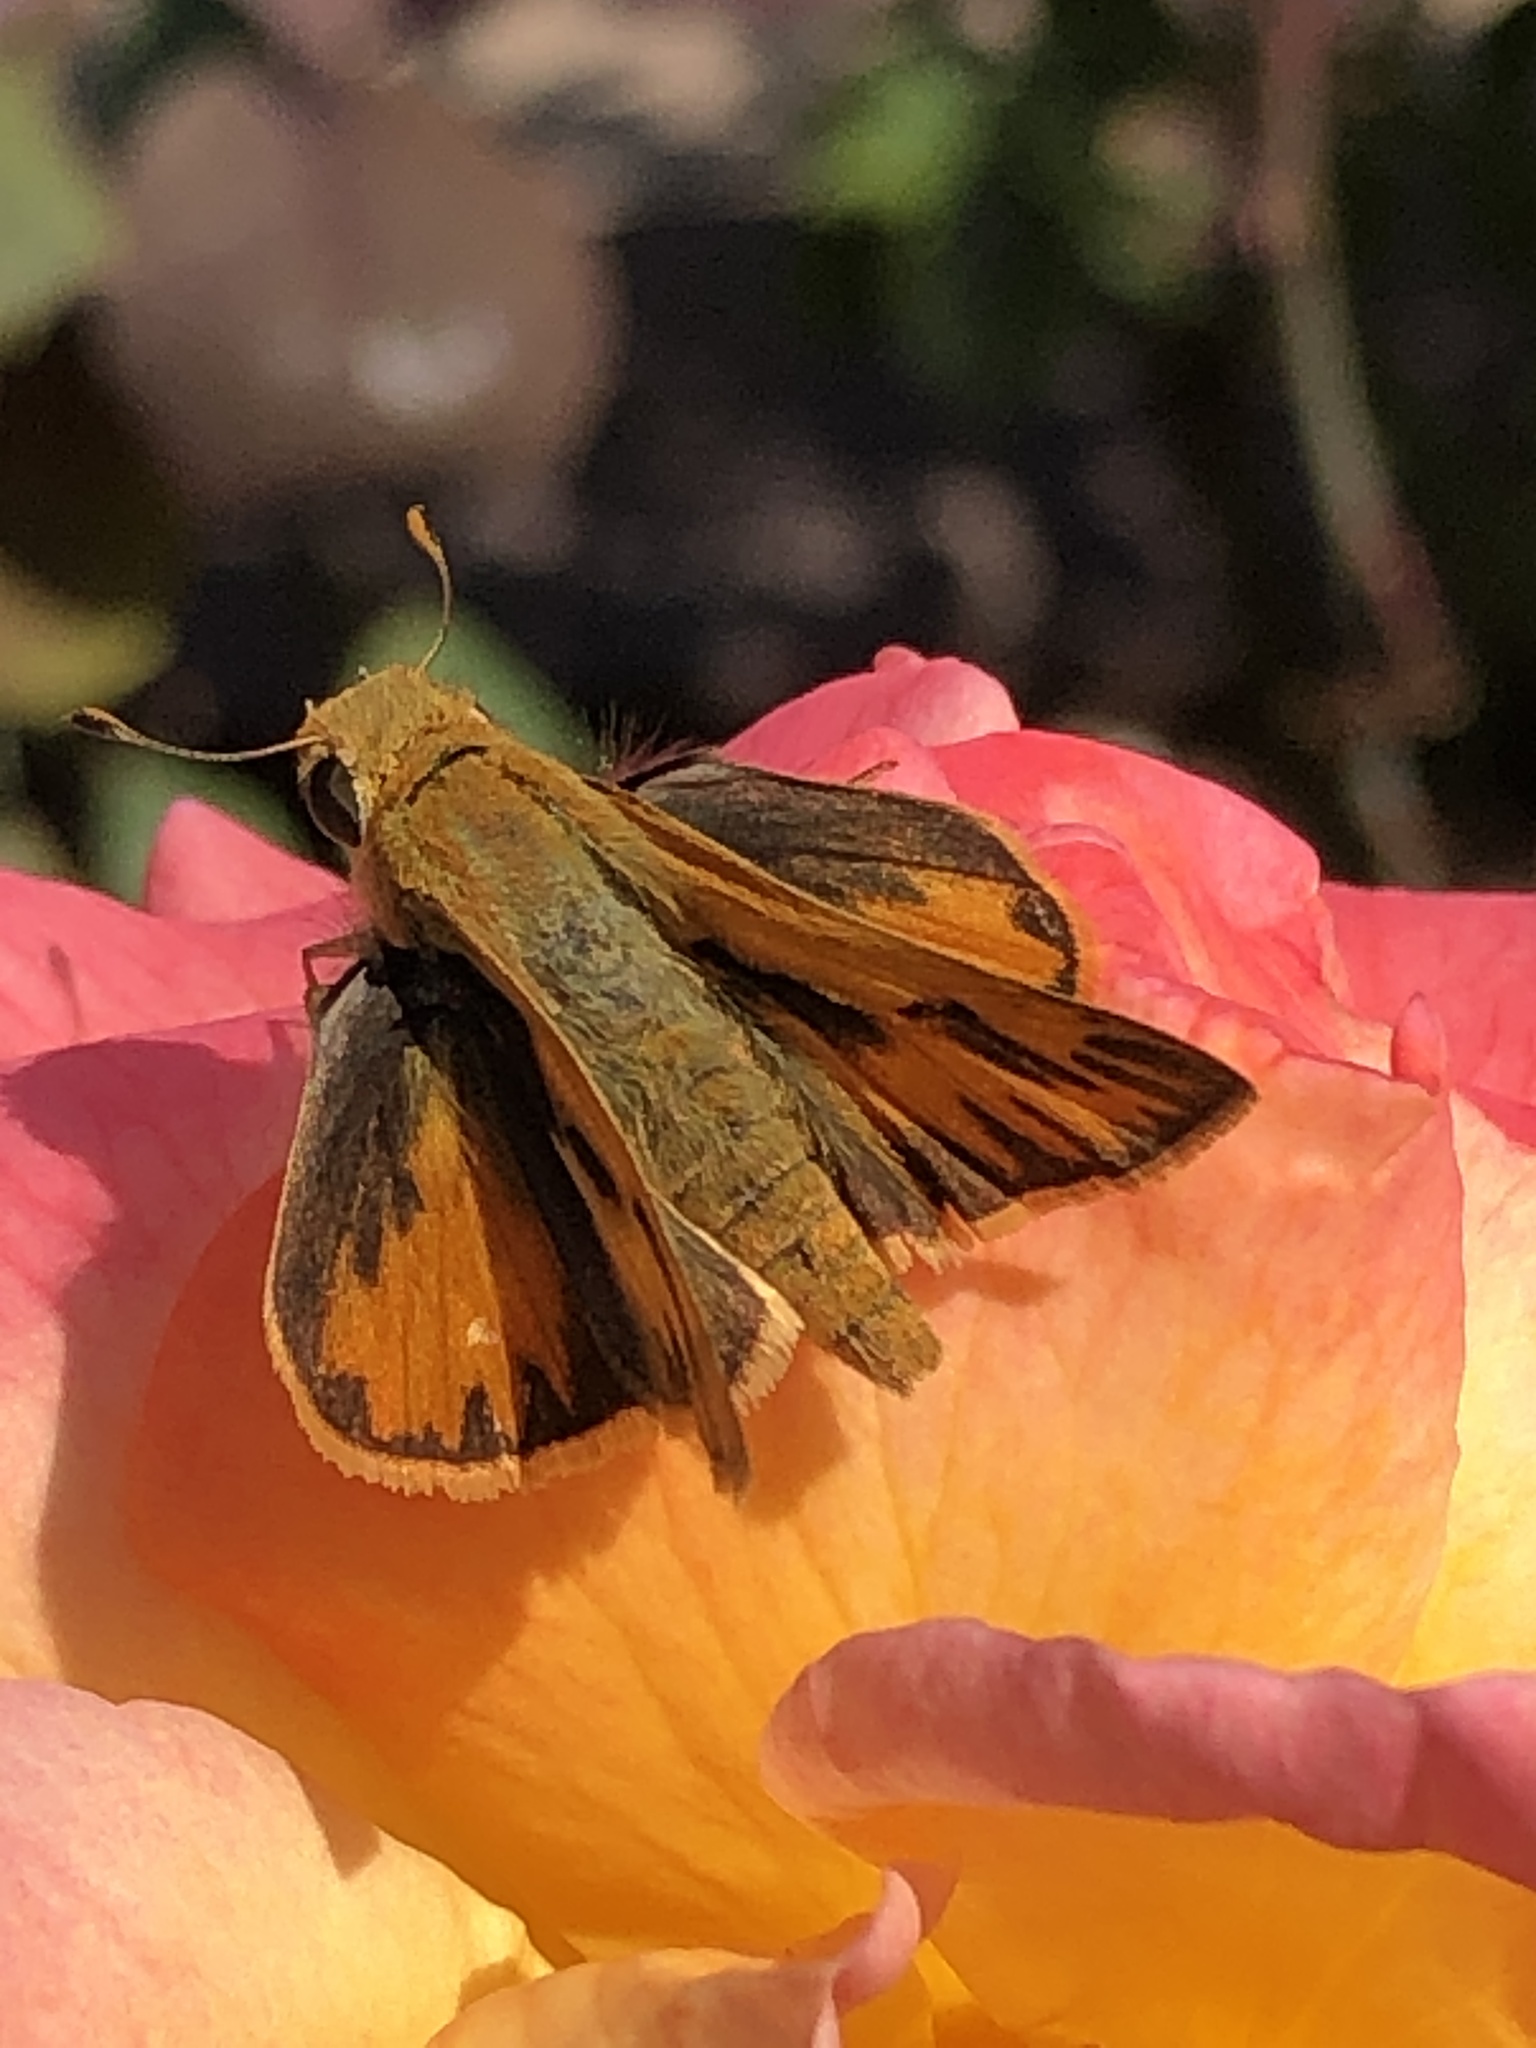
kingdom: Animalia
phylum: Arthropoda
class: Insecta
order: Lepidoptera
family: Hesperiidae
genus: Hylephila
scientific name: Hylephila phyleus
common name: Fiery skipper
